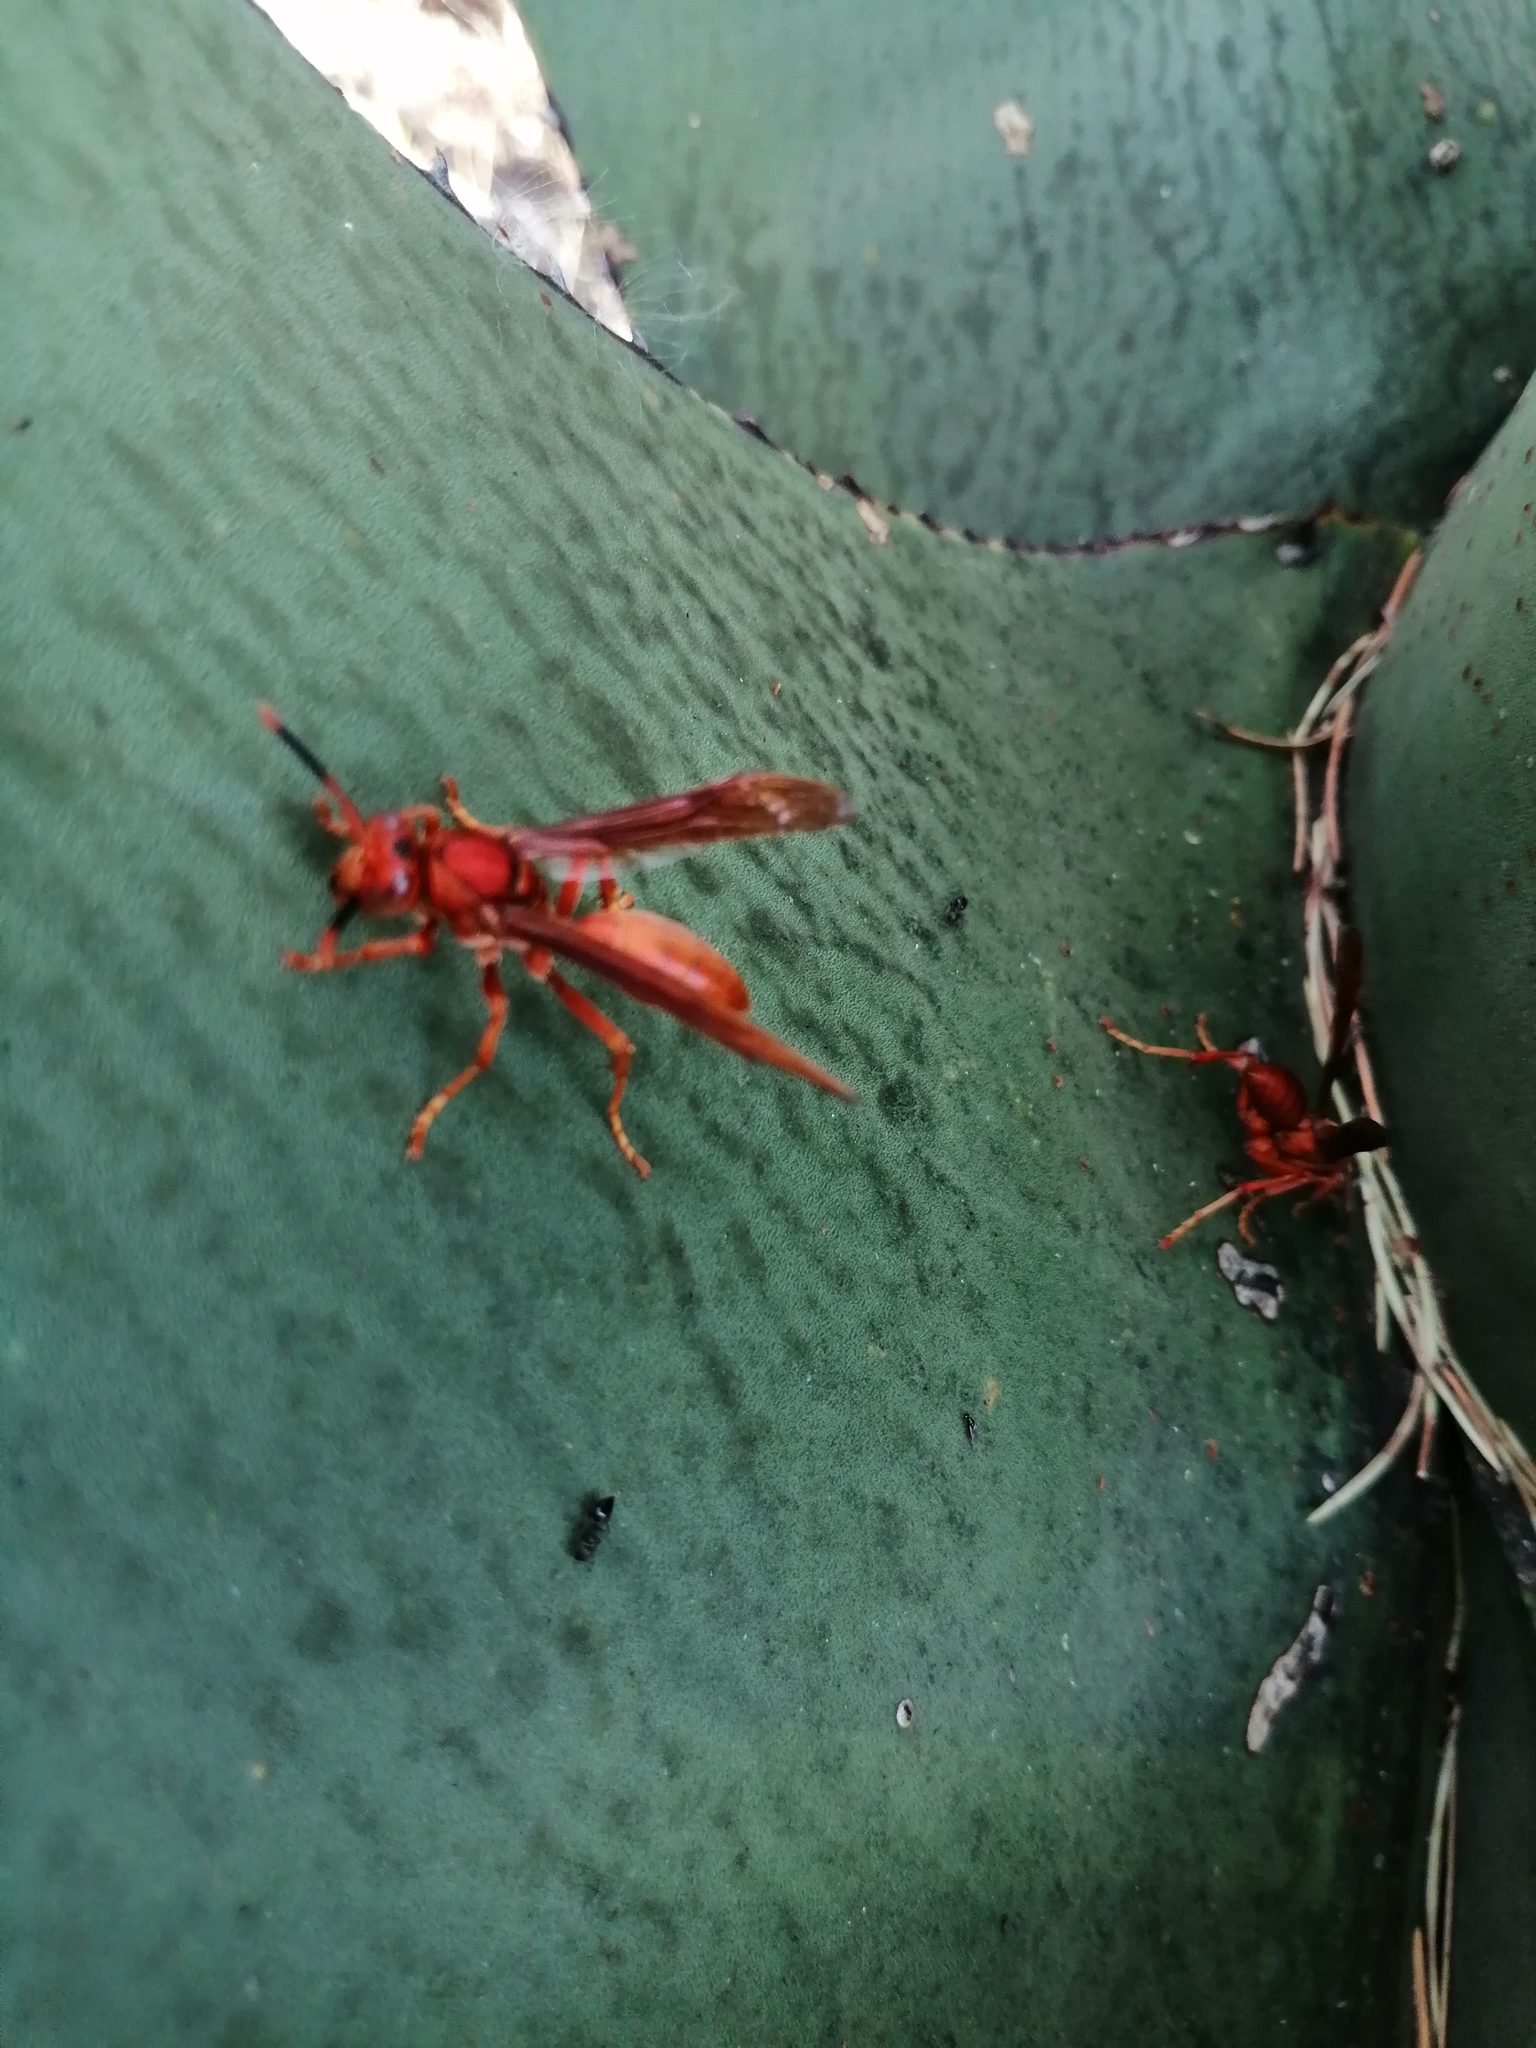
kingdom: Animalia
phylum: Arthropoda
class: Insecta
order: Hymenoptera
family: Eumenidae
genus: Polistes
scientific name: Polistes canadensis
